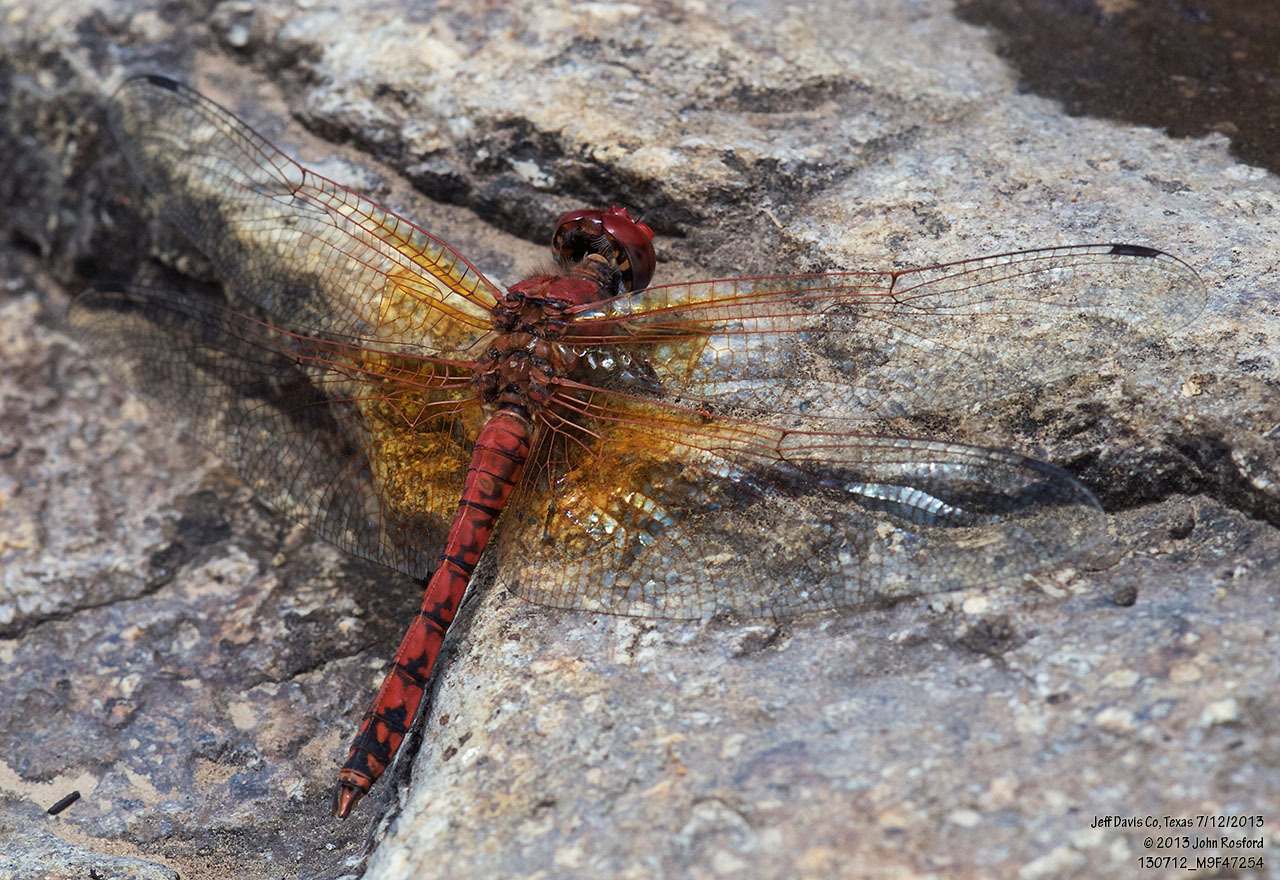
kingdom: Animalia
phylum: Arthropoda
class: Insecta
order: Odonata
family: Libellulidae
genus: Paltothemis
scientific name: Paltothemis lineatipes
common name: Red rock skimmer
